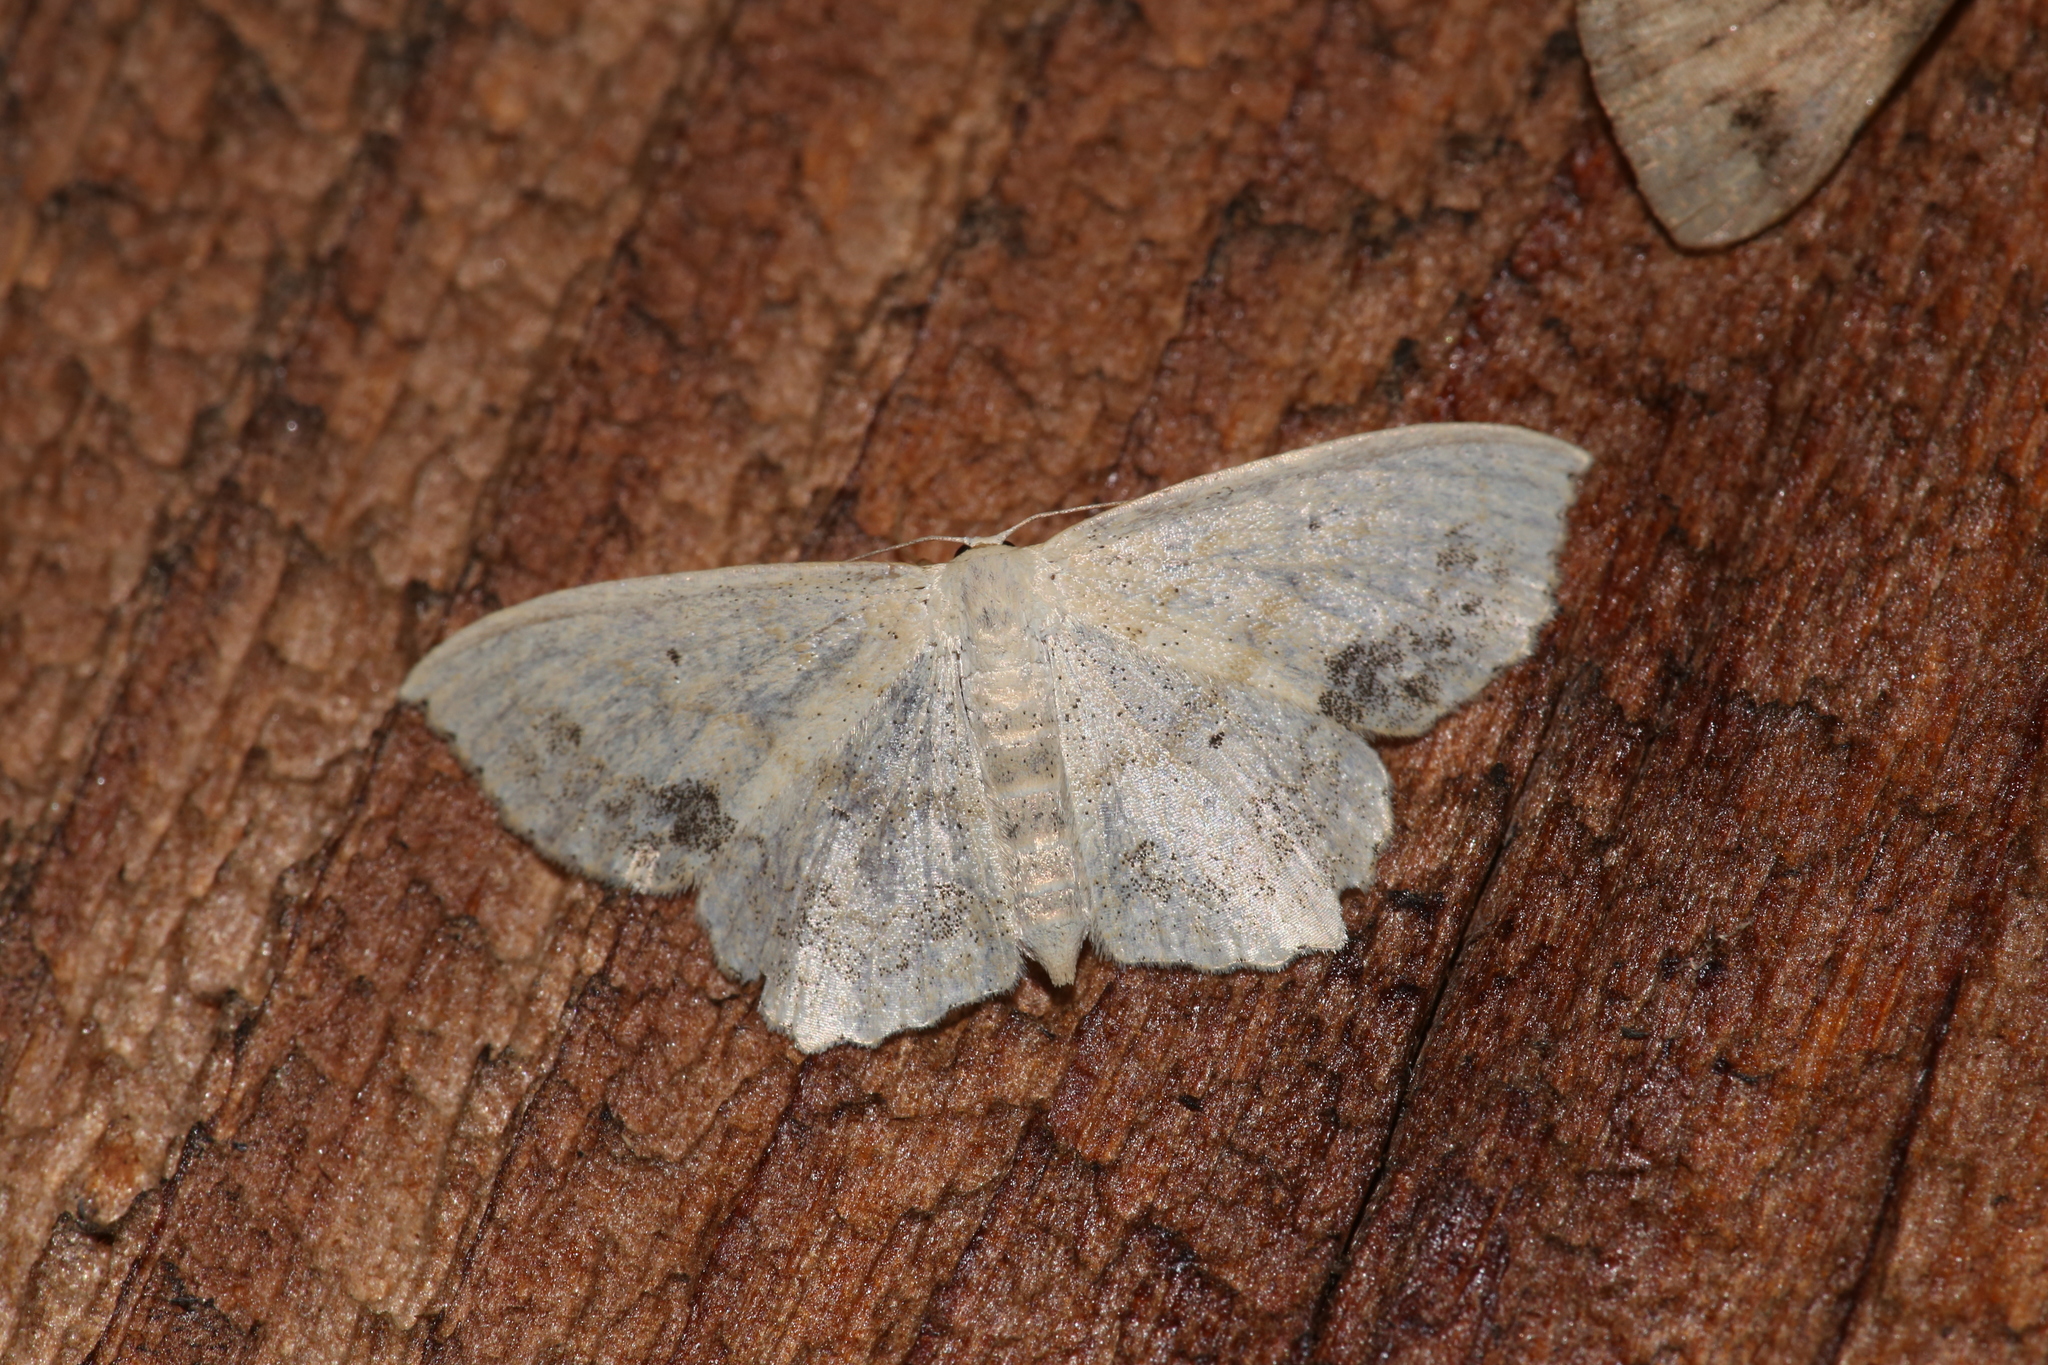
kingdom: Animalia
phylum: Arthropoda
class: Insecta
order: Lepidoptera
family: Geometridae
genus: Scopula
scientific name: Scopula limboundata
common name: Large lace border
